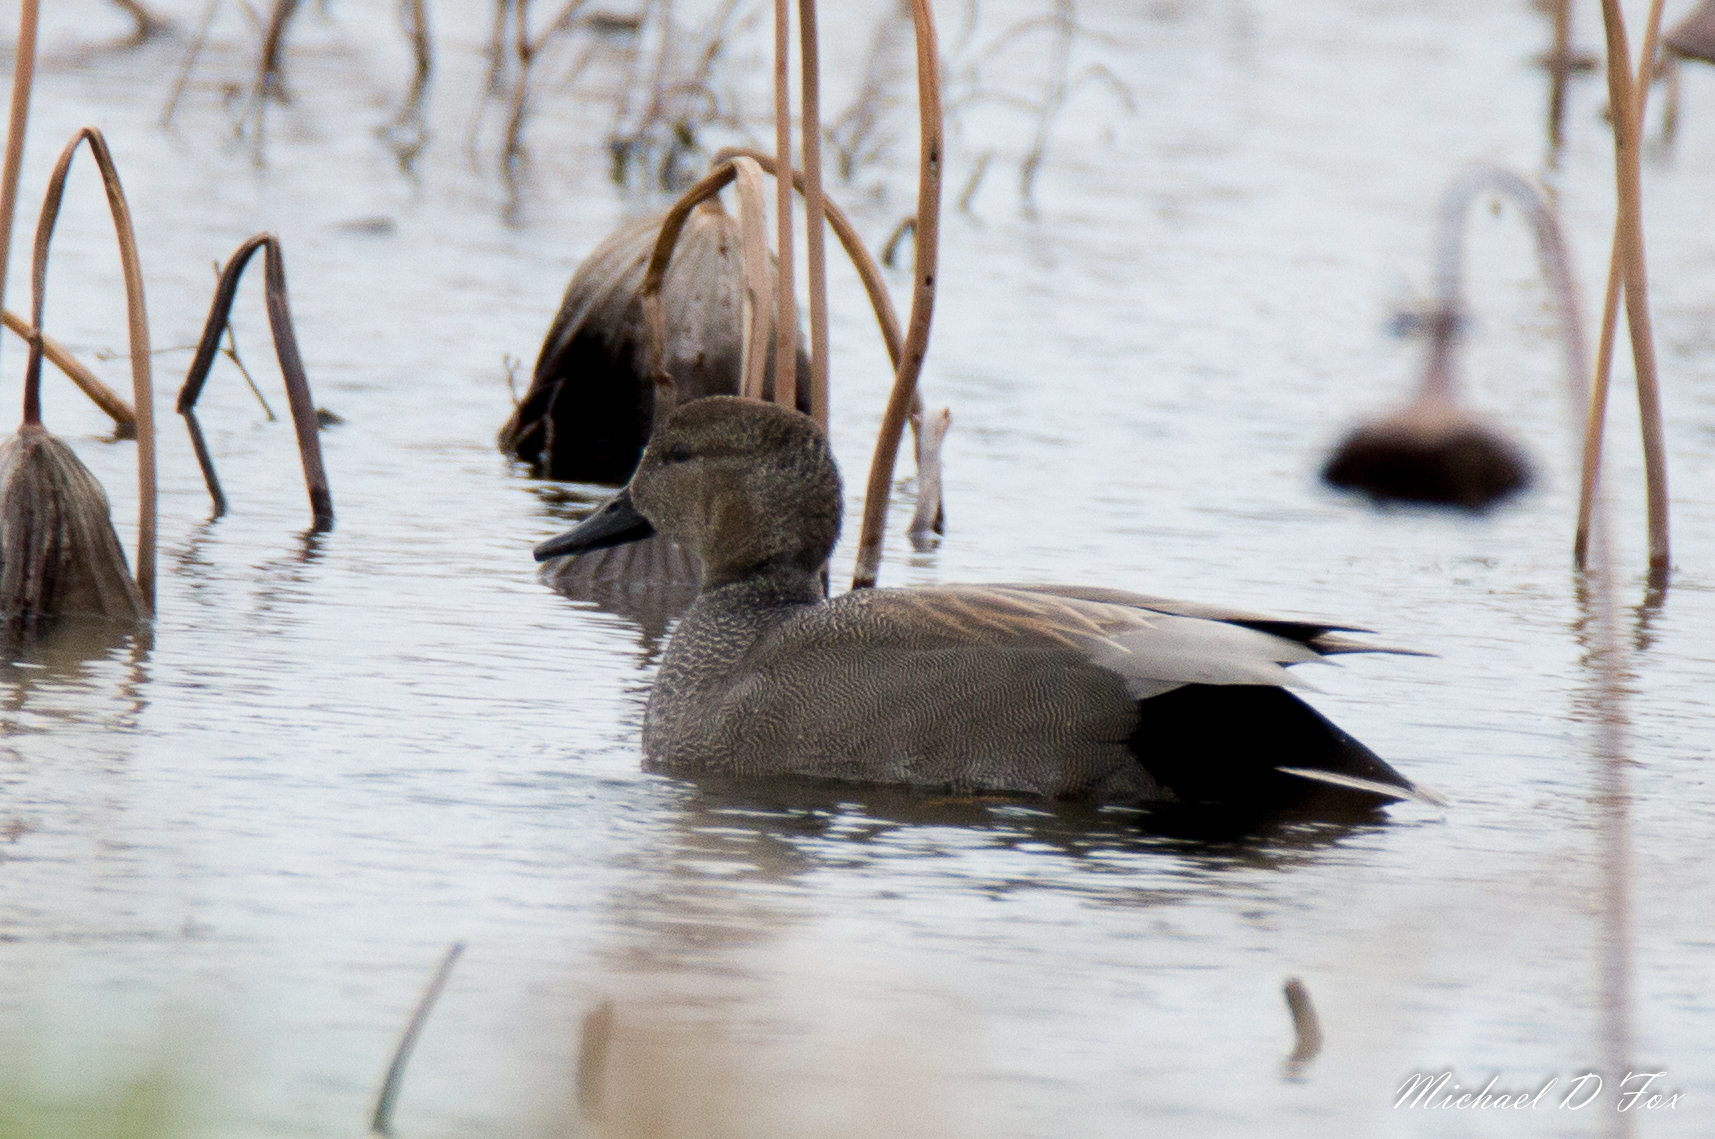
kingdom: Animalia
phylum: Chordata
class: Aves
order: Anseriformes
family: Anatidae
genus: Mareca
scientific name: Mareca strepera
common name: Gadwall
